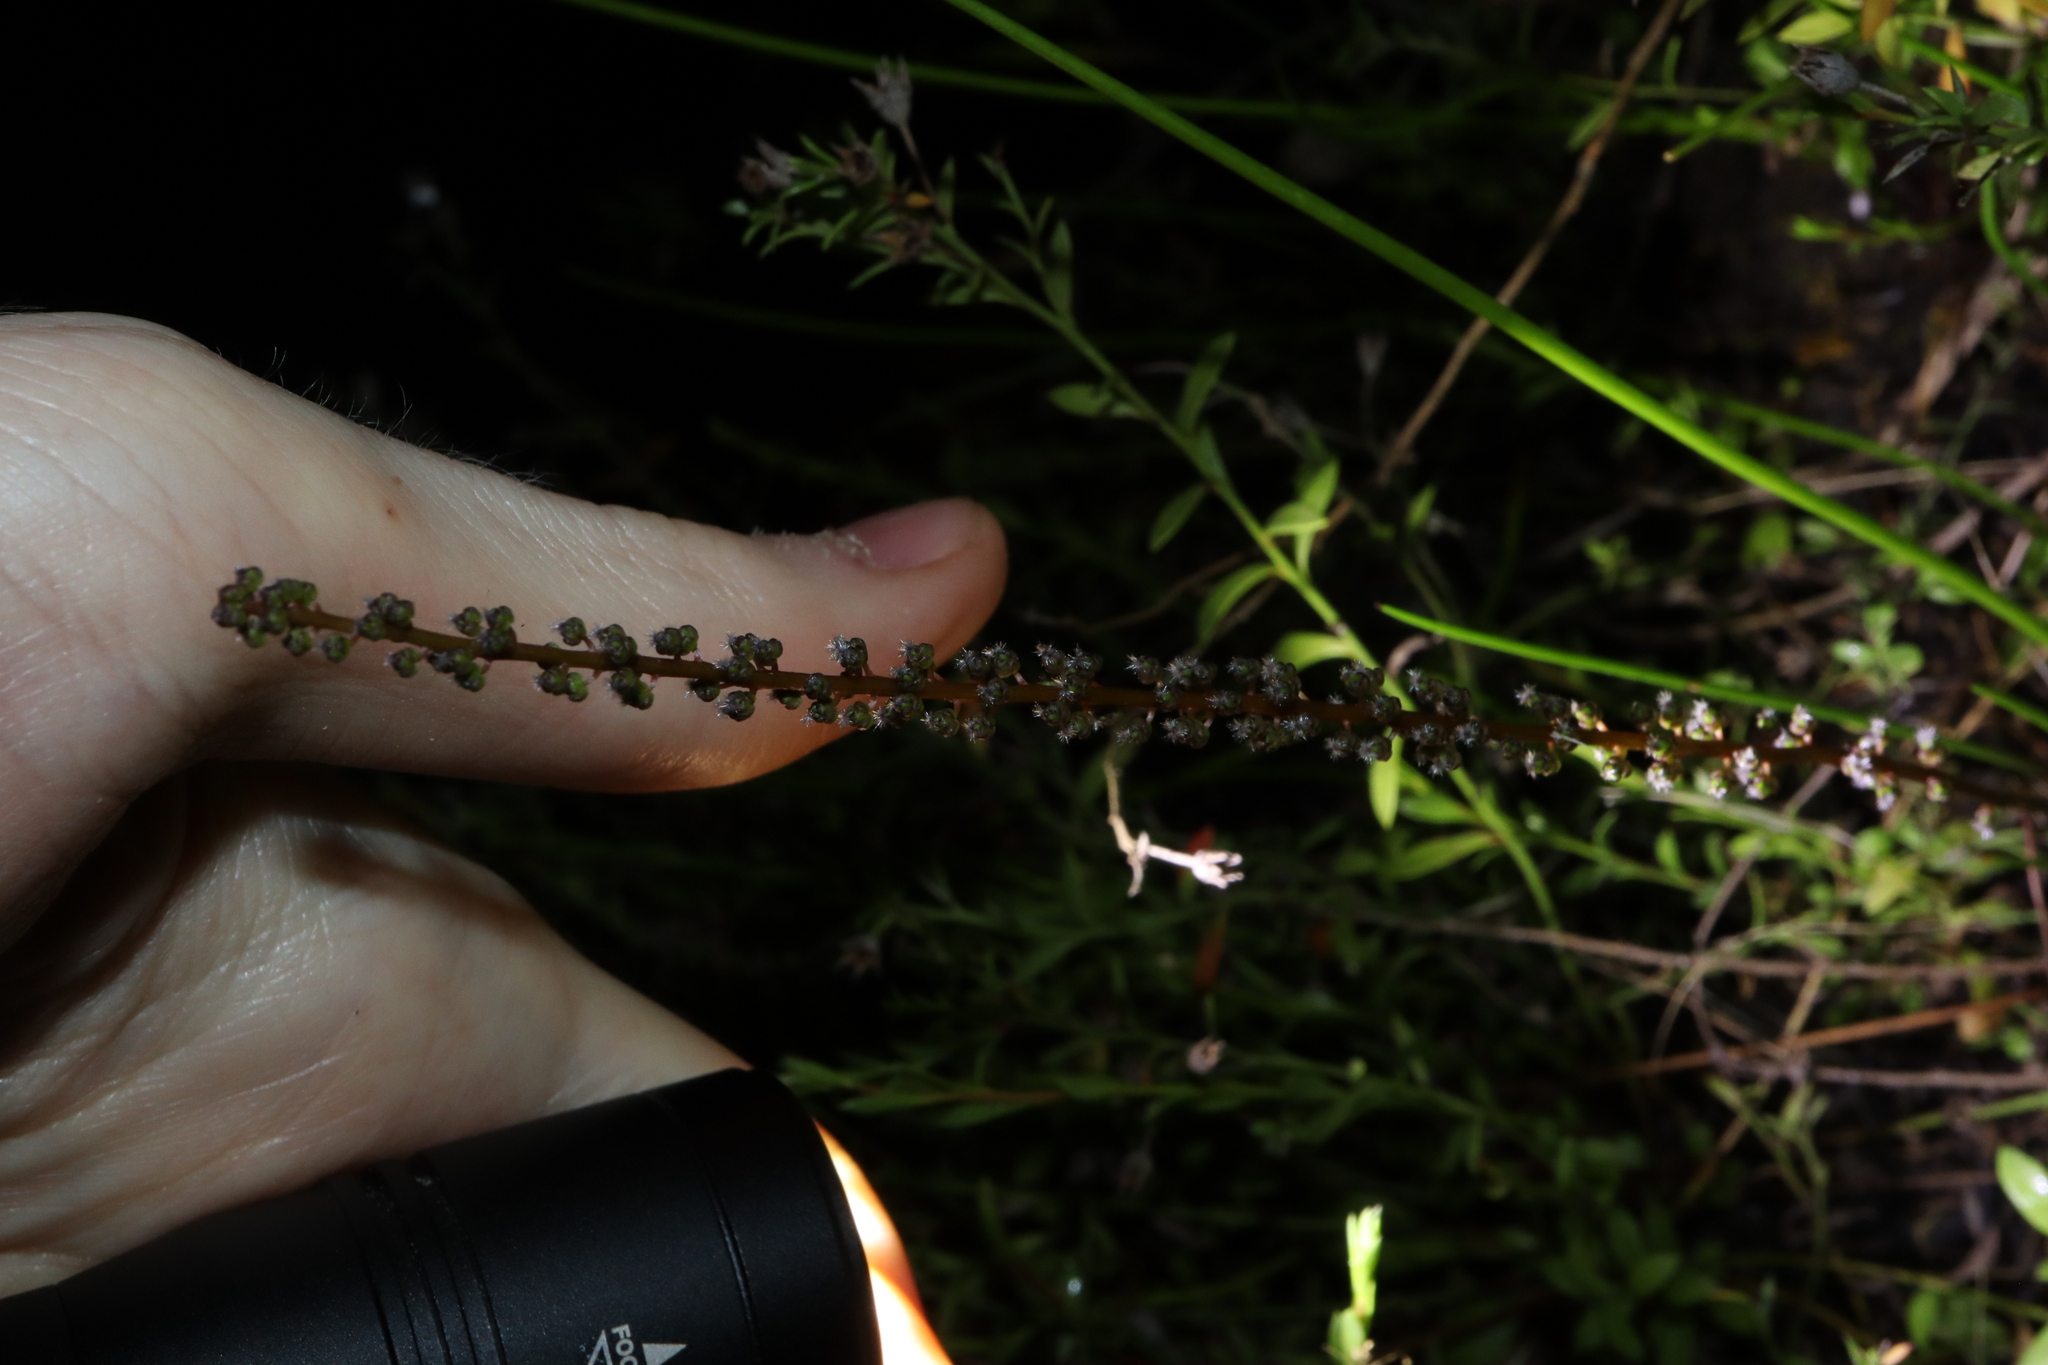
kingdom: Plantae
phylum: Tracheophyta
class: Liliopsida
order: Alismatales
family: Juncaginaceae
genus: Triglochin
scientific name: Triglochin striata
